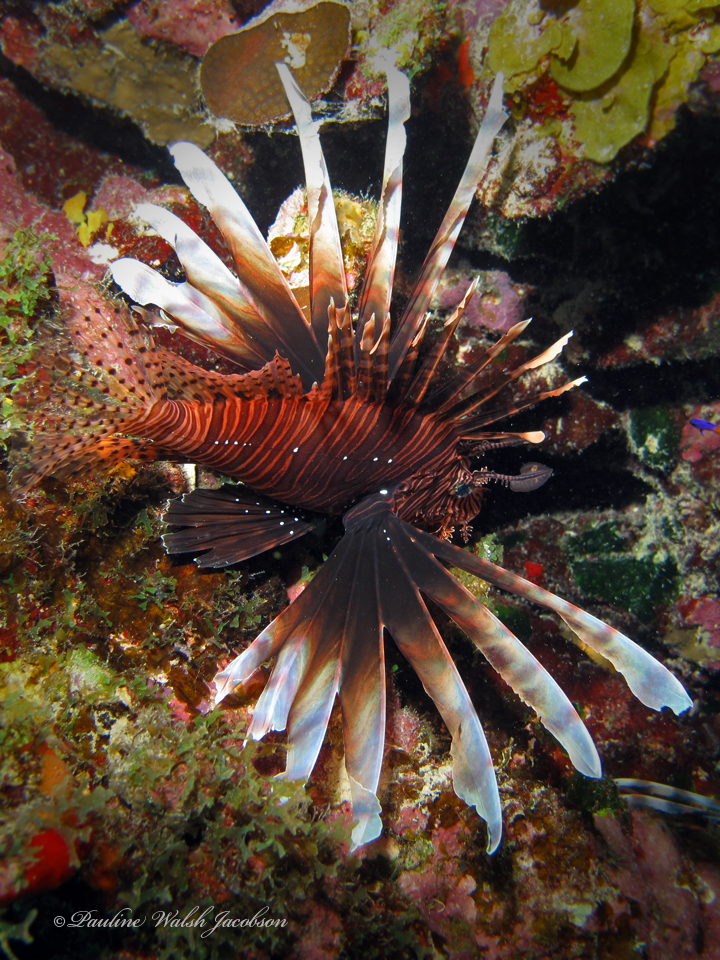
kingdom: Animalia
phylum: Chordata
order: Scorpaeniformes
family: Scorpaenidae
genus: Pterois
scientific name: Pterois volitans
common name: Lionfish
